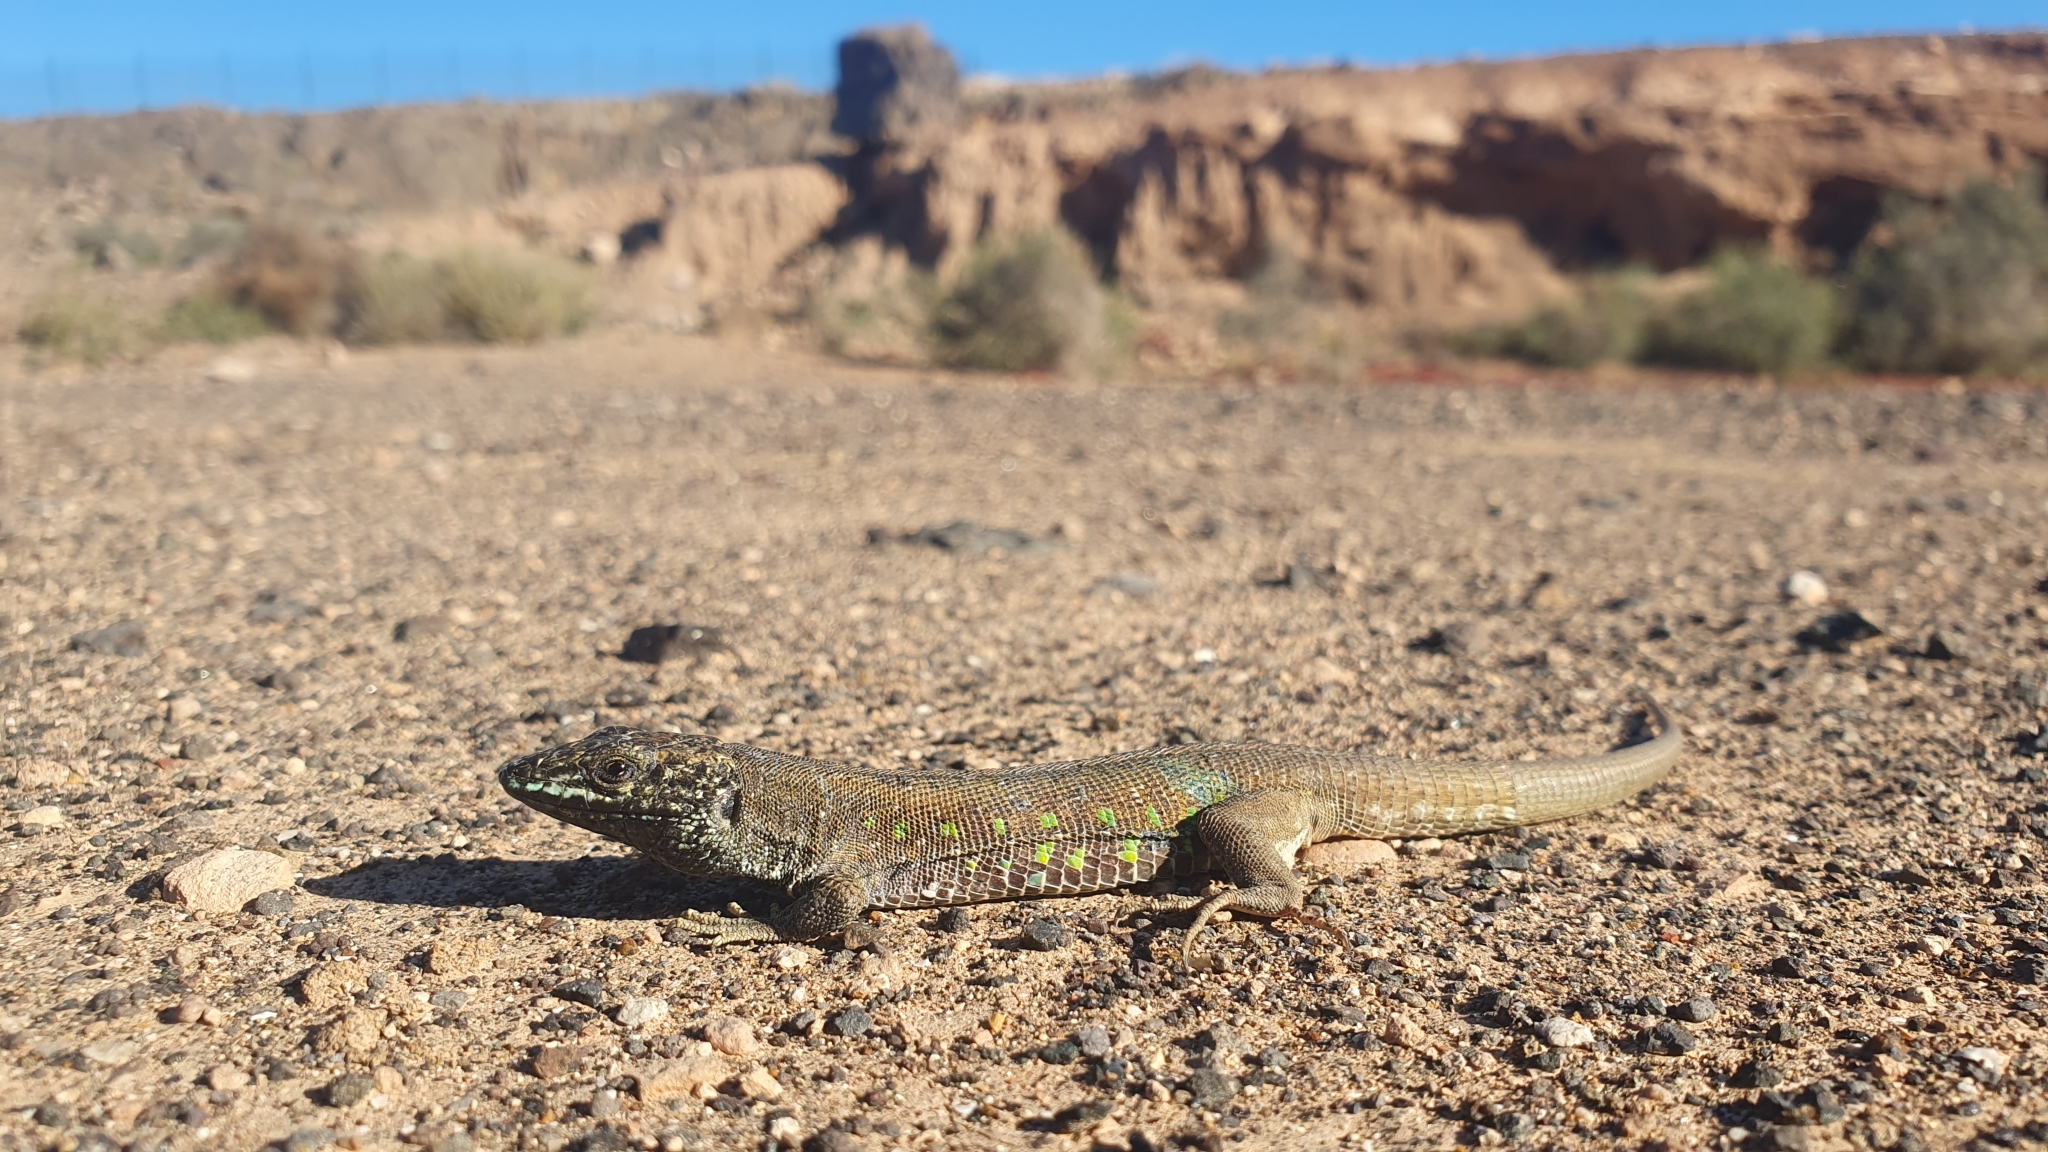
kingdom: Animalia
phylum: Chordata
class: Squamata
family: Lacertidae
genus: Gallotia
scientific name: Gallotia atlantica
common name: Atlantic lizard
